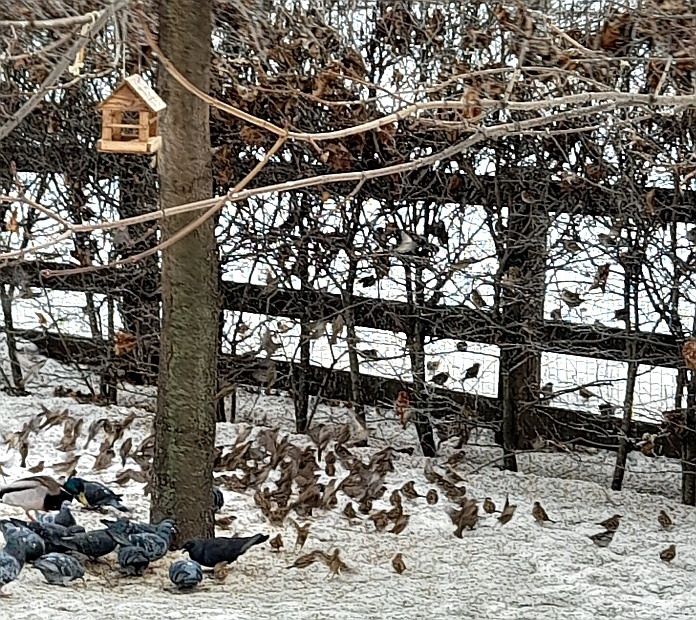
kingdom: Animalia
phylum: Chordata
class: Aves
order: Passeriformes
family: Passeridae
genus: Passer
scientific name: Passer montanus
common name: Eurasian tree sparrow
